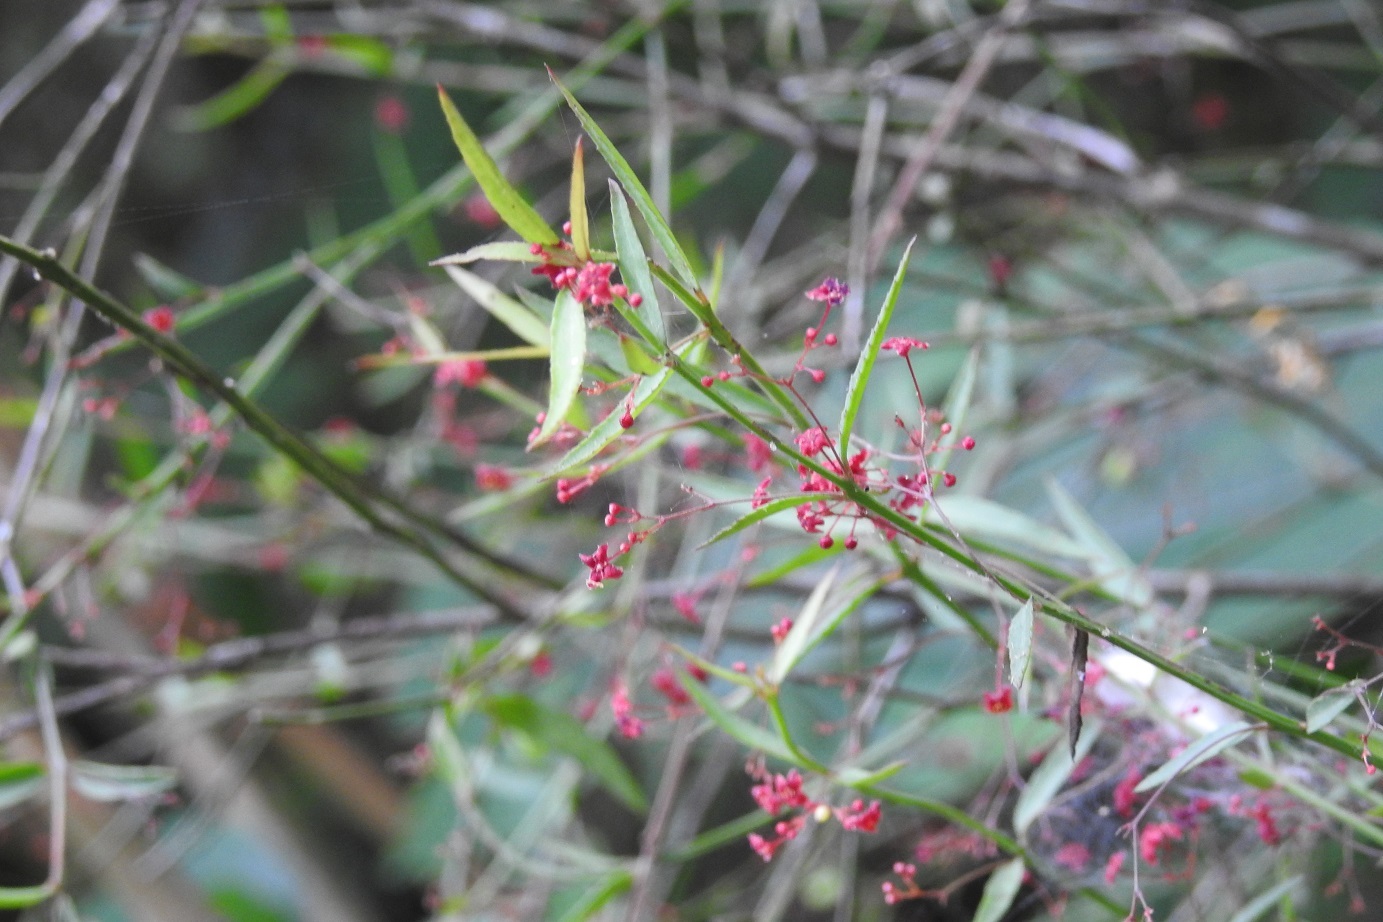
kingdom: Plantae
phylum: Tracheophyta
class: Magnoliopsida
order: Celastrales
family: Celastraceae
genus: Crossopetalum
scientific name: Crossopetalum uragoga
